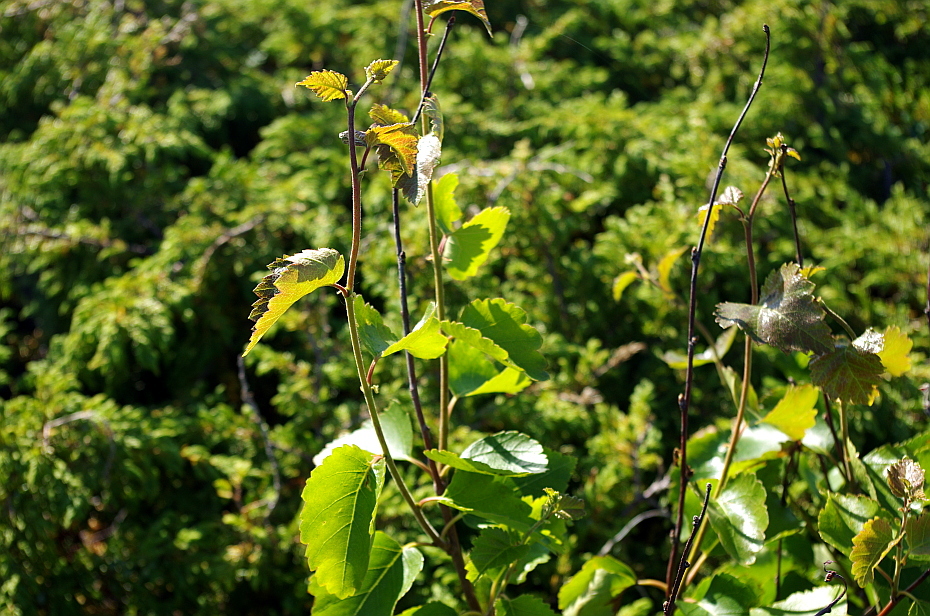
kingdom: Plantae
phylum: Tracheophyta
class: Magnoliopsida
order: Fagales
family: Betulaceae
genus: Betula
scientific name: Betula pubescens
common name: Downy birch
